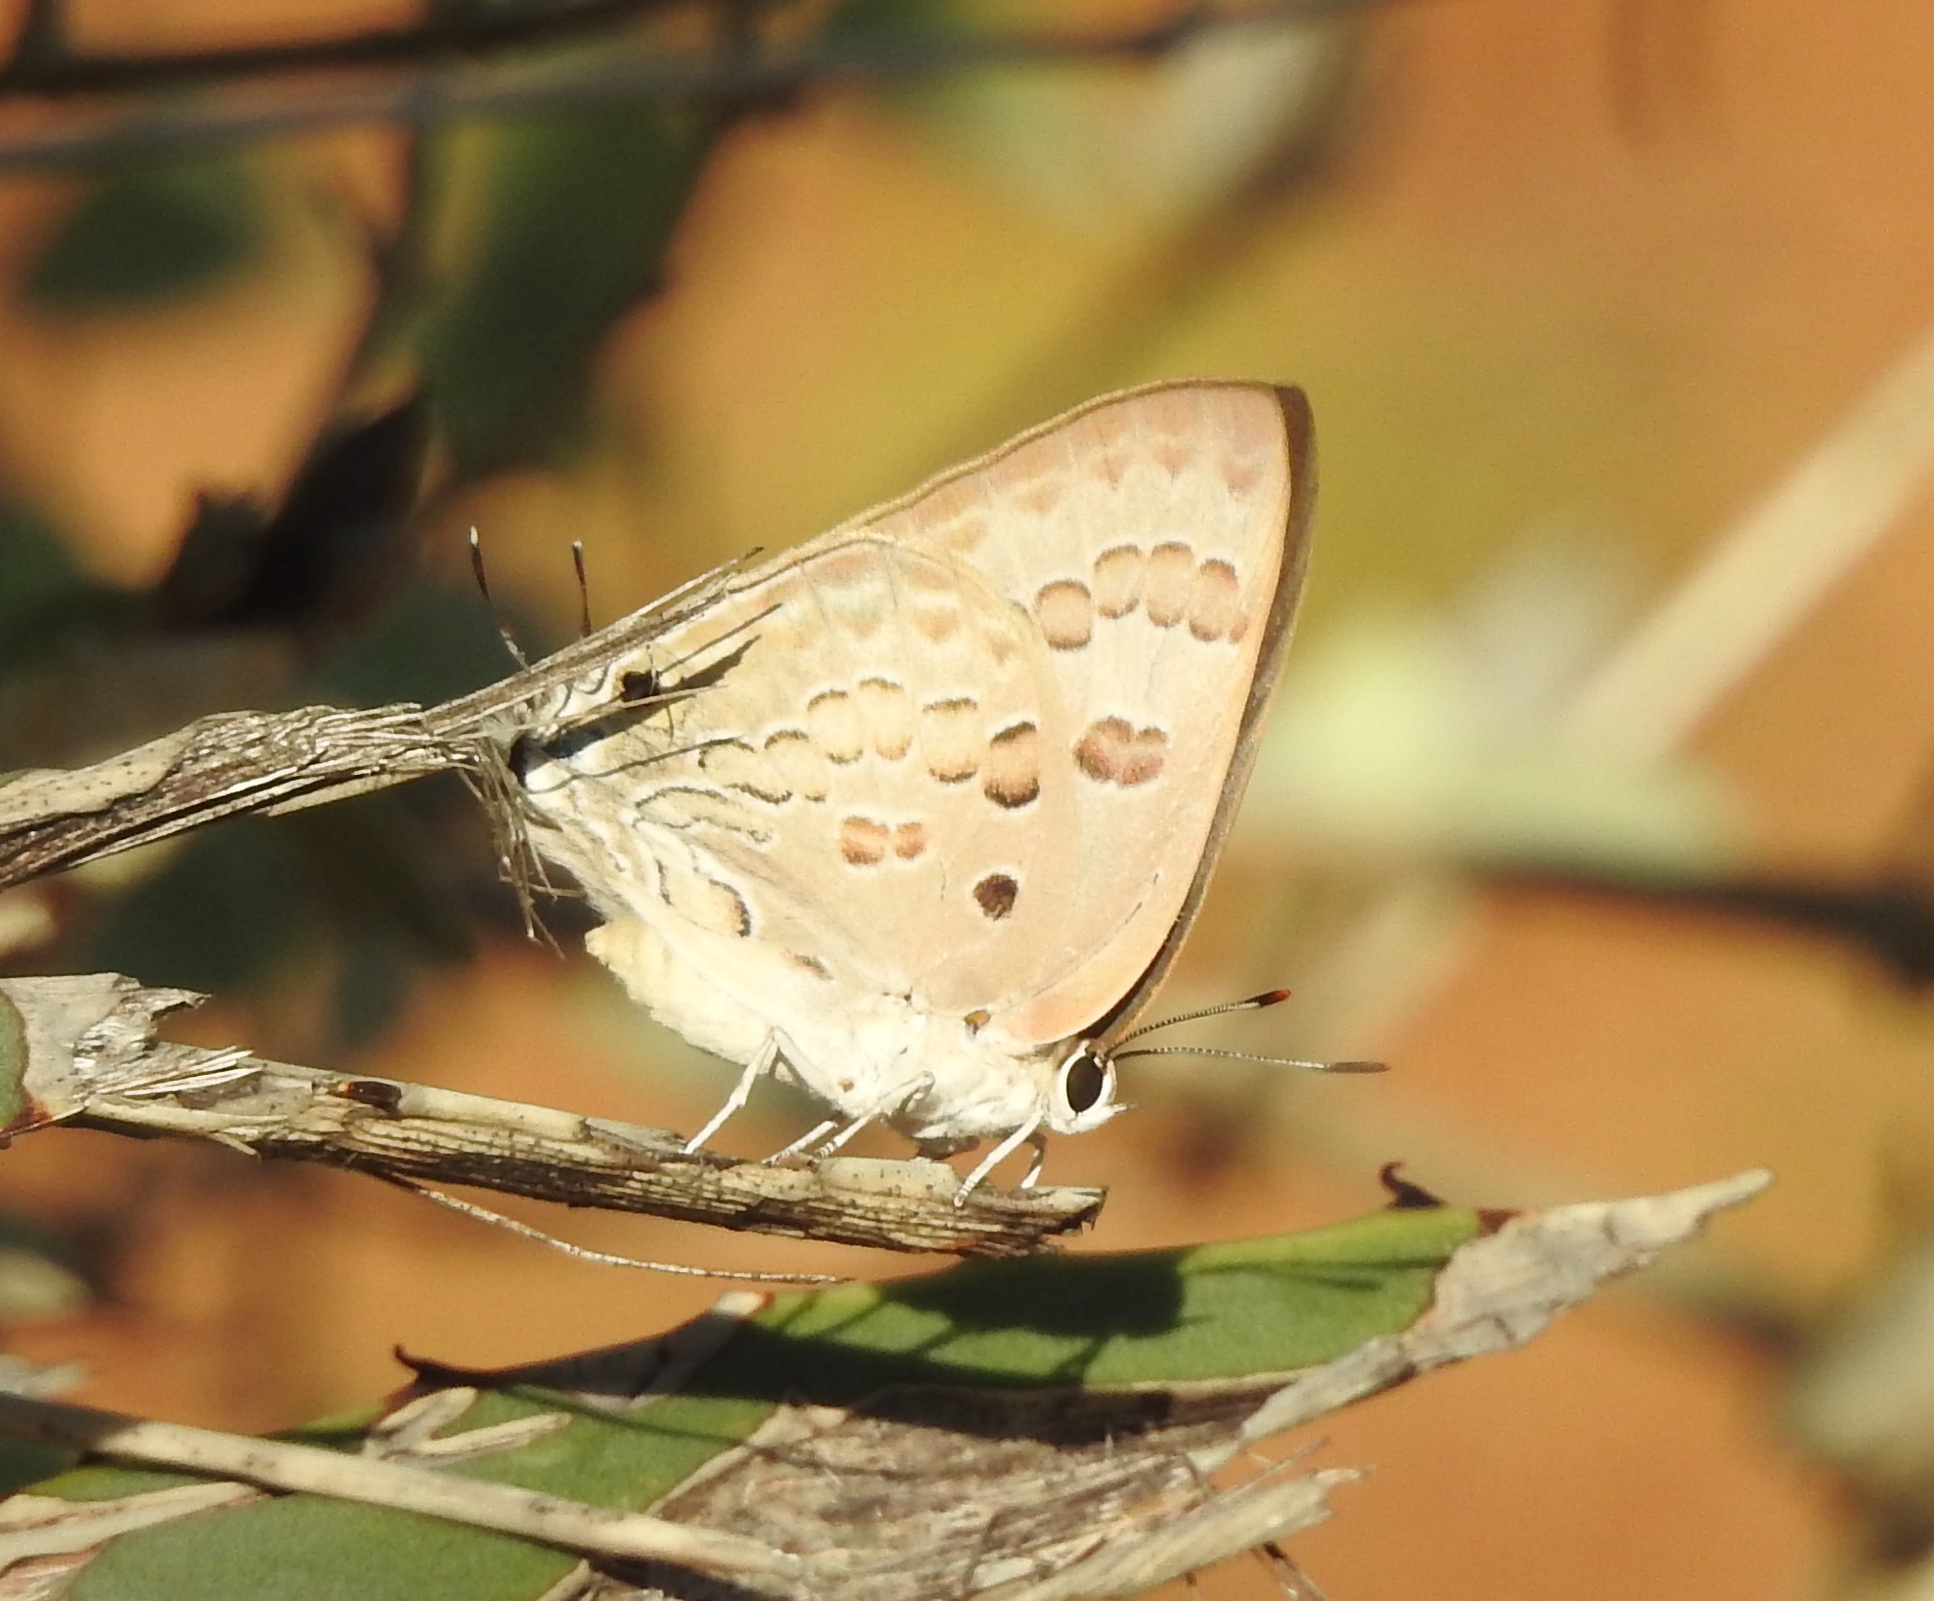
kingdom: Animalia
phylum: Arthropoda
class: Insecta
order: Lepidoptera
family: Lycaenidae
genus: Deudorix
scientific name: Deudorix
